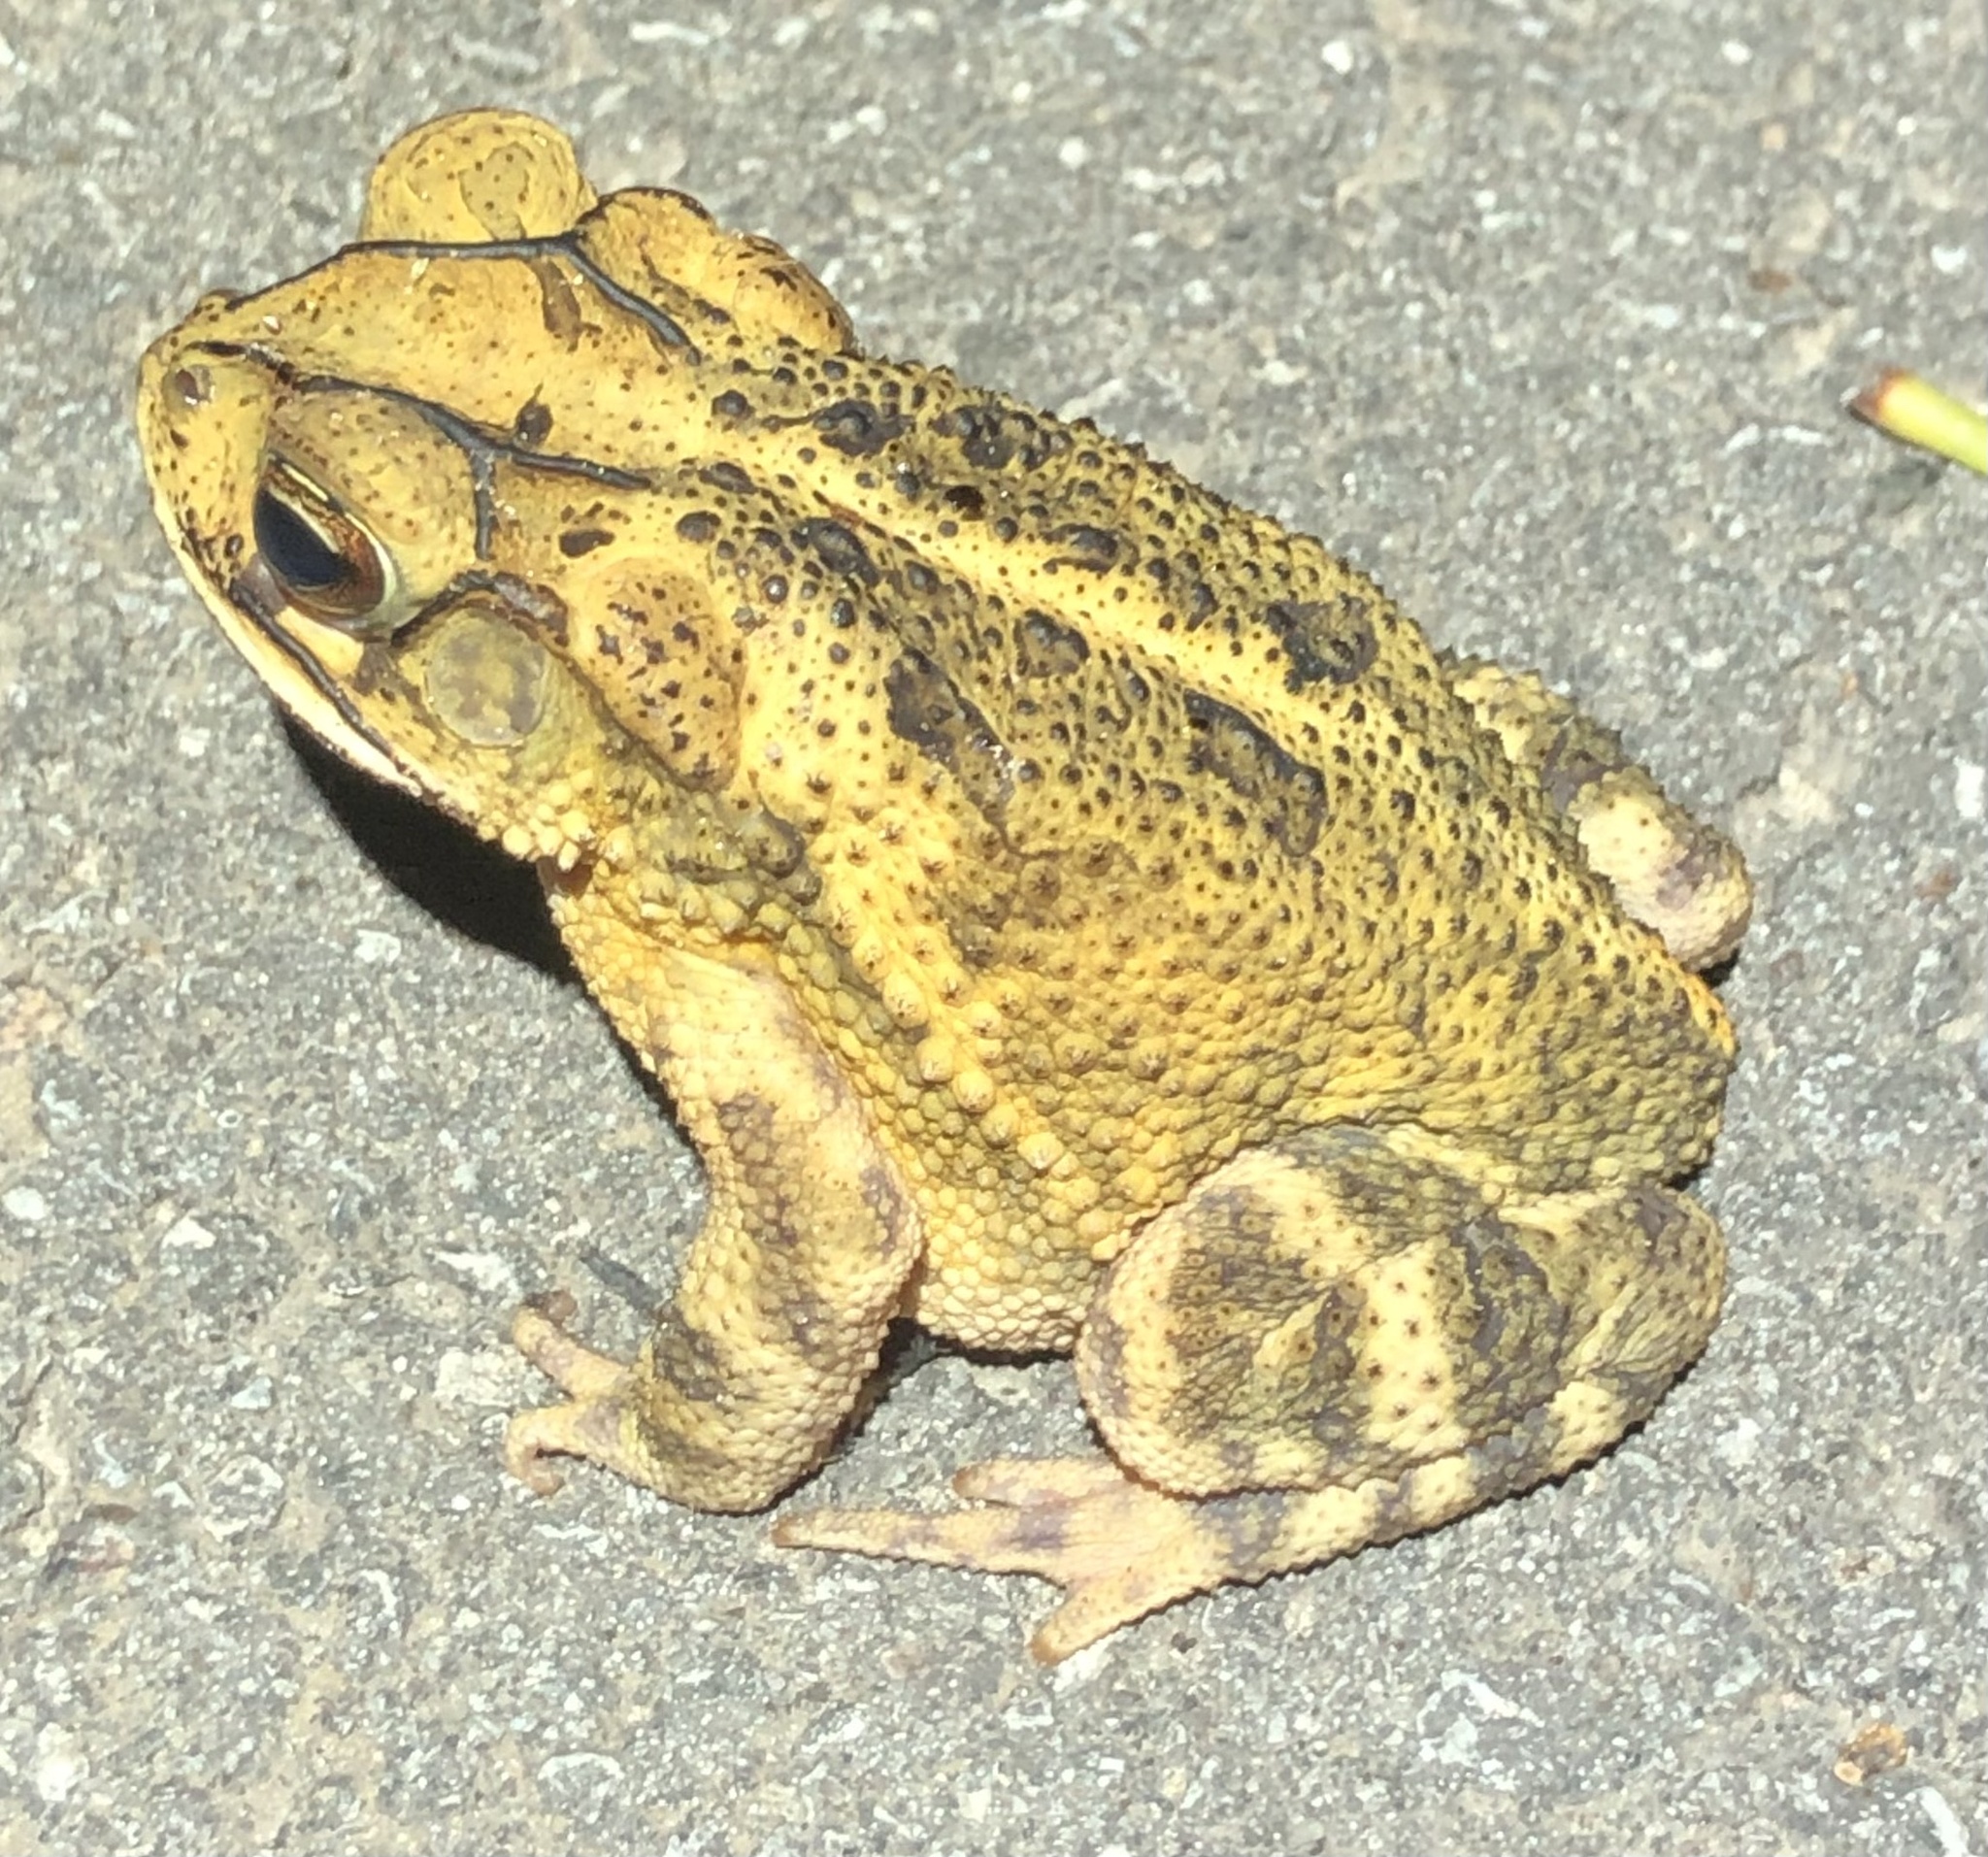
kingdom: Animalia
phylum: Chordata
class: Amphibia
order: Anura
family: Bufonidae
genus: Incilius
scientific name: Incilius nebulifer
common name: Gulf coast toad
